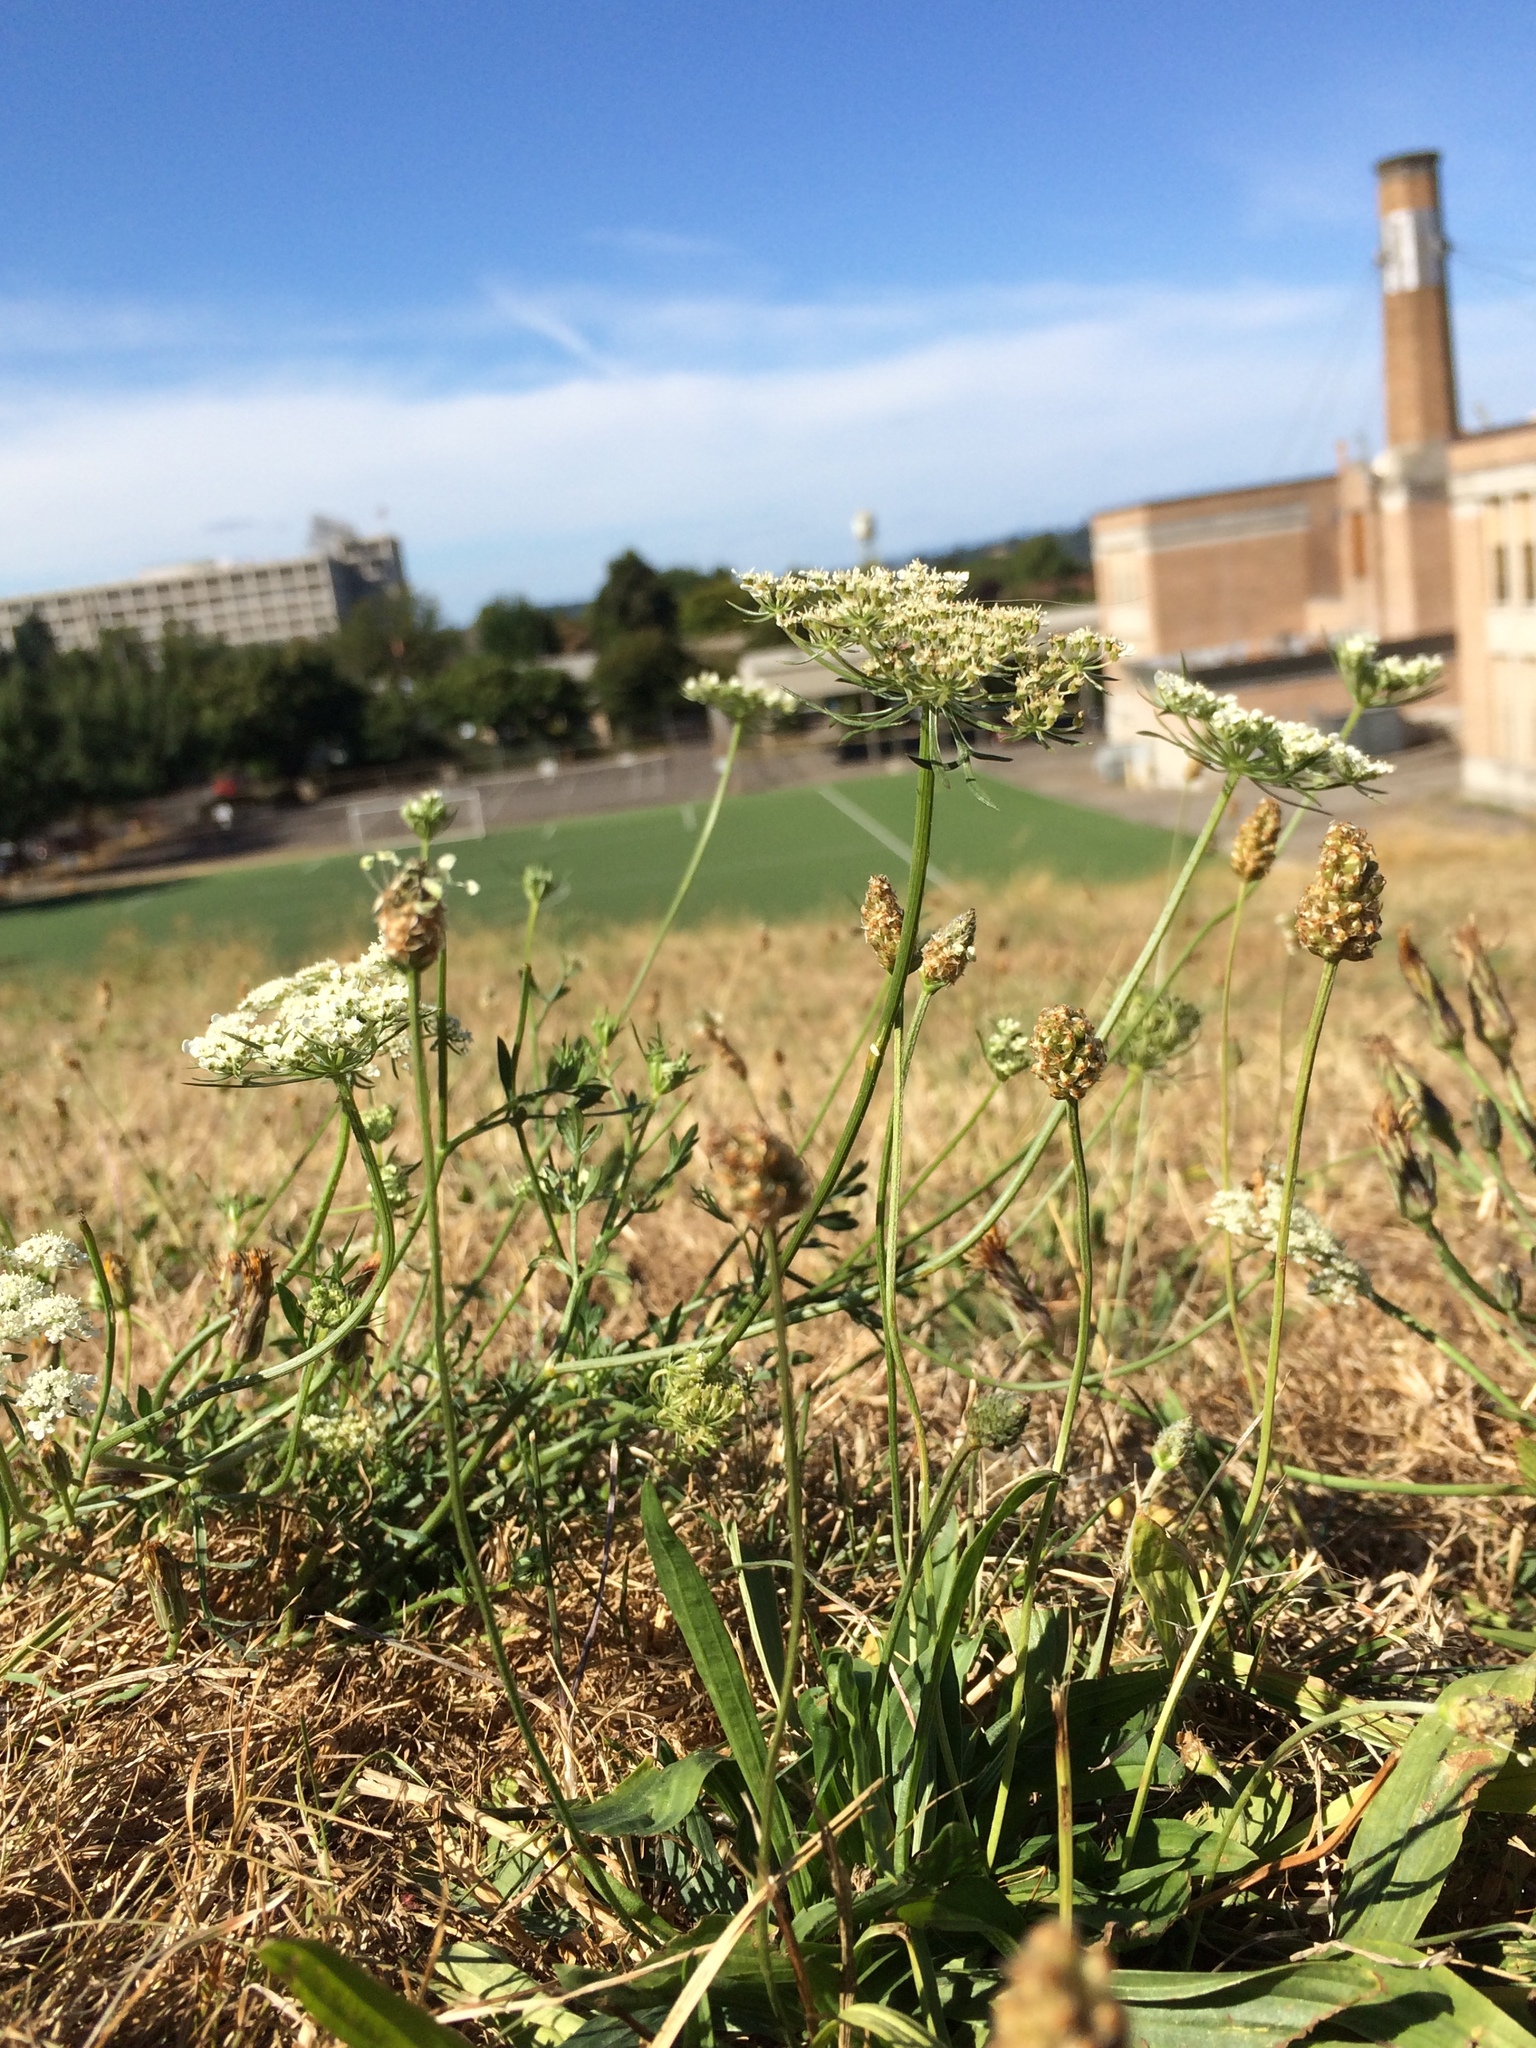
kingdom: Plantae
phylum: Tracheophyta
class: Magnoliopsida
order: Apiales
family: Apiaceae
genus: Daucus
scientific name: Daucus carota
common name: Wild carrot
